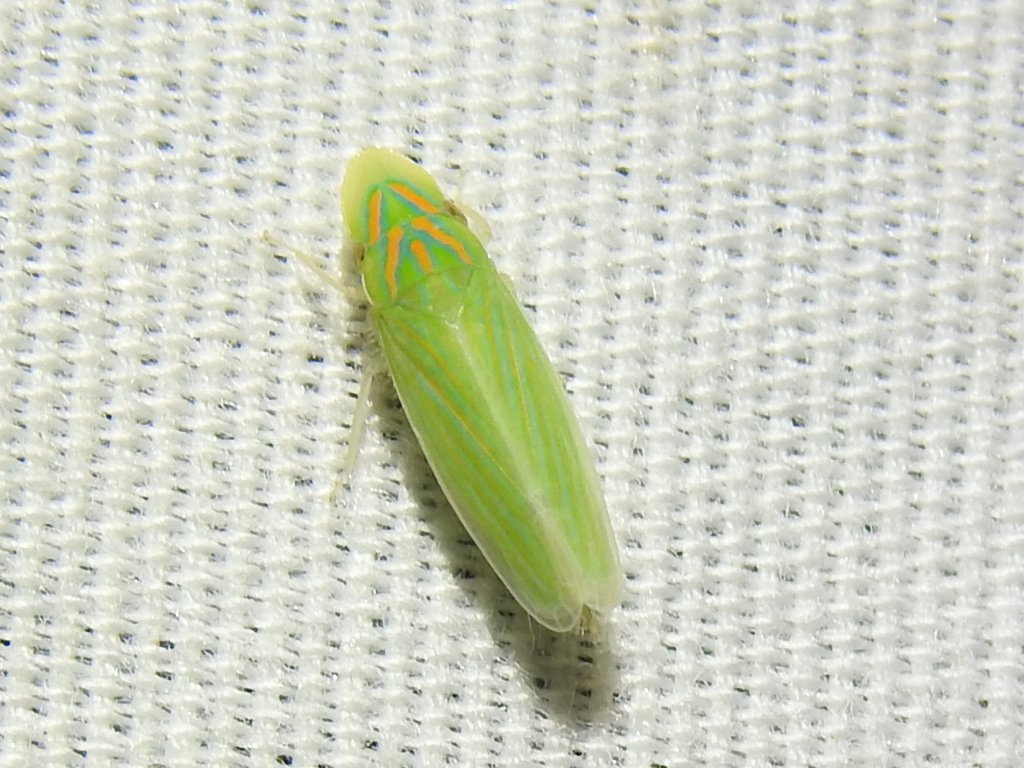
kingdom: Animalia
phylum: Arthropoda
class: Insecta
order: Hemiptera
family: Cicadellidae
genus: Spangbergiella
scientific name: Spangbergiella vulnerata
